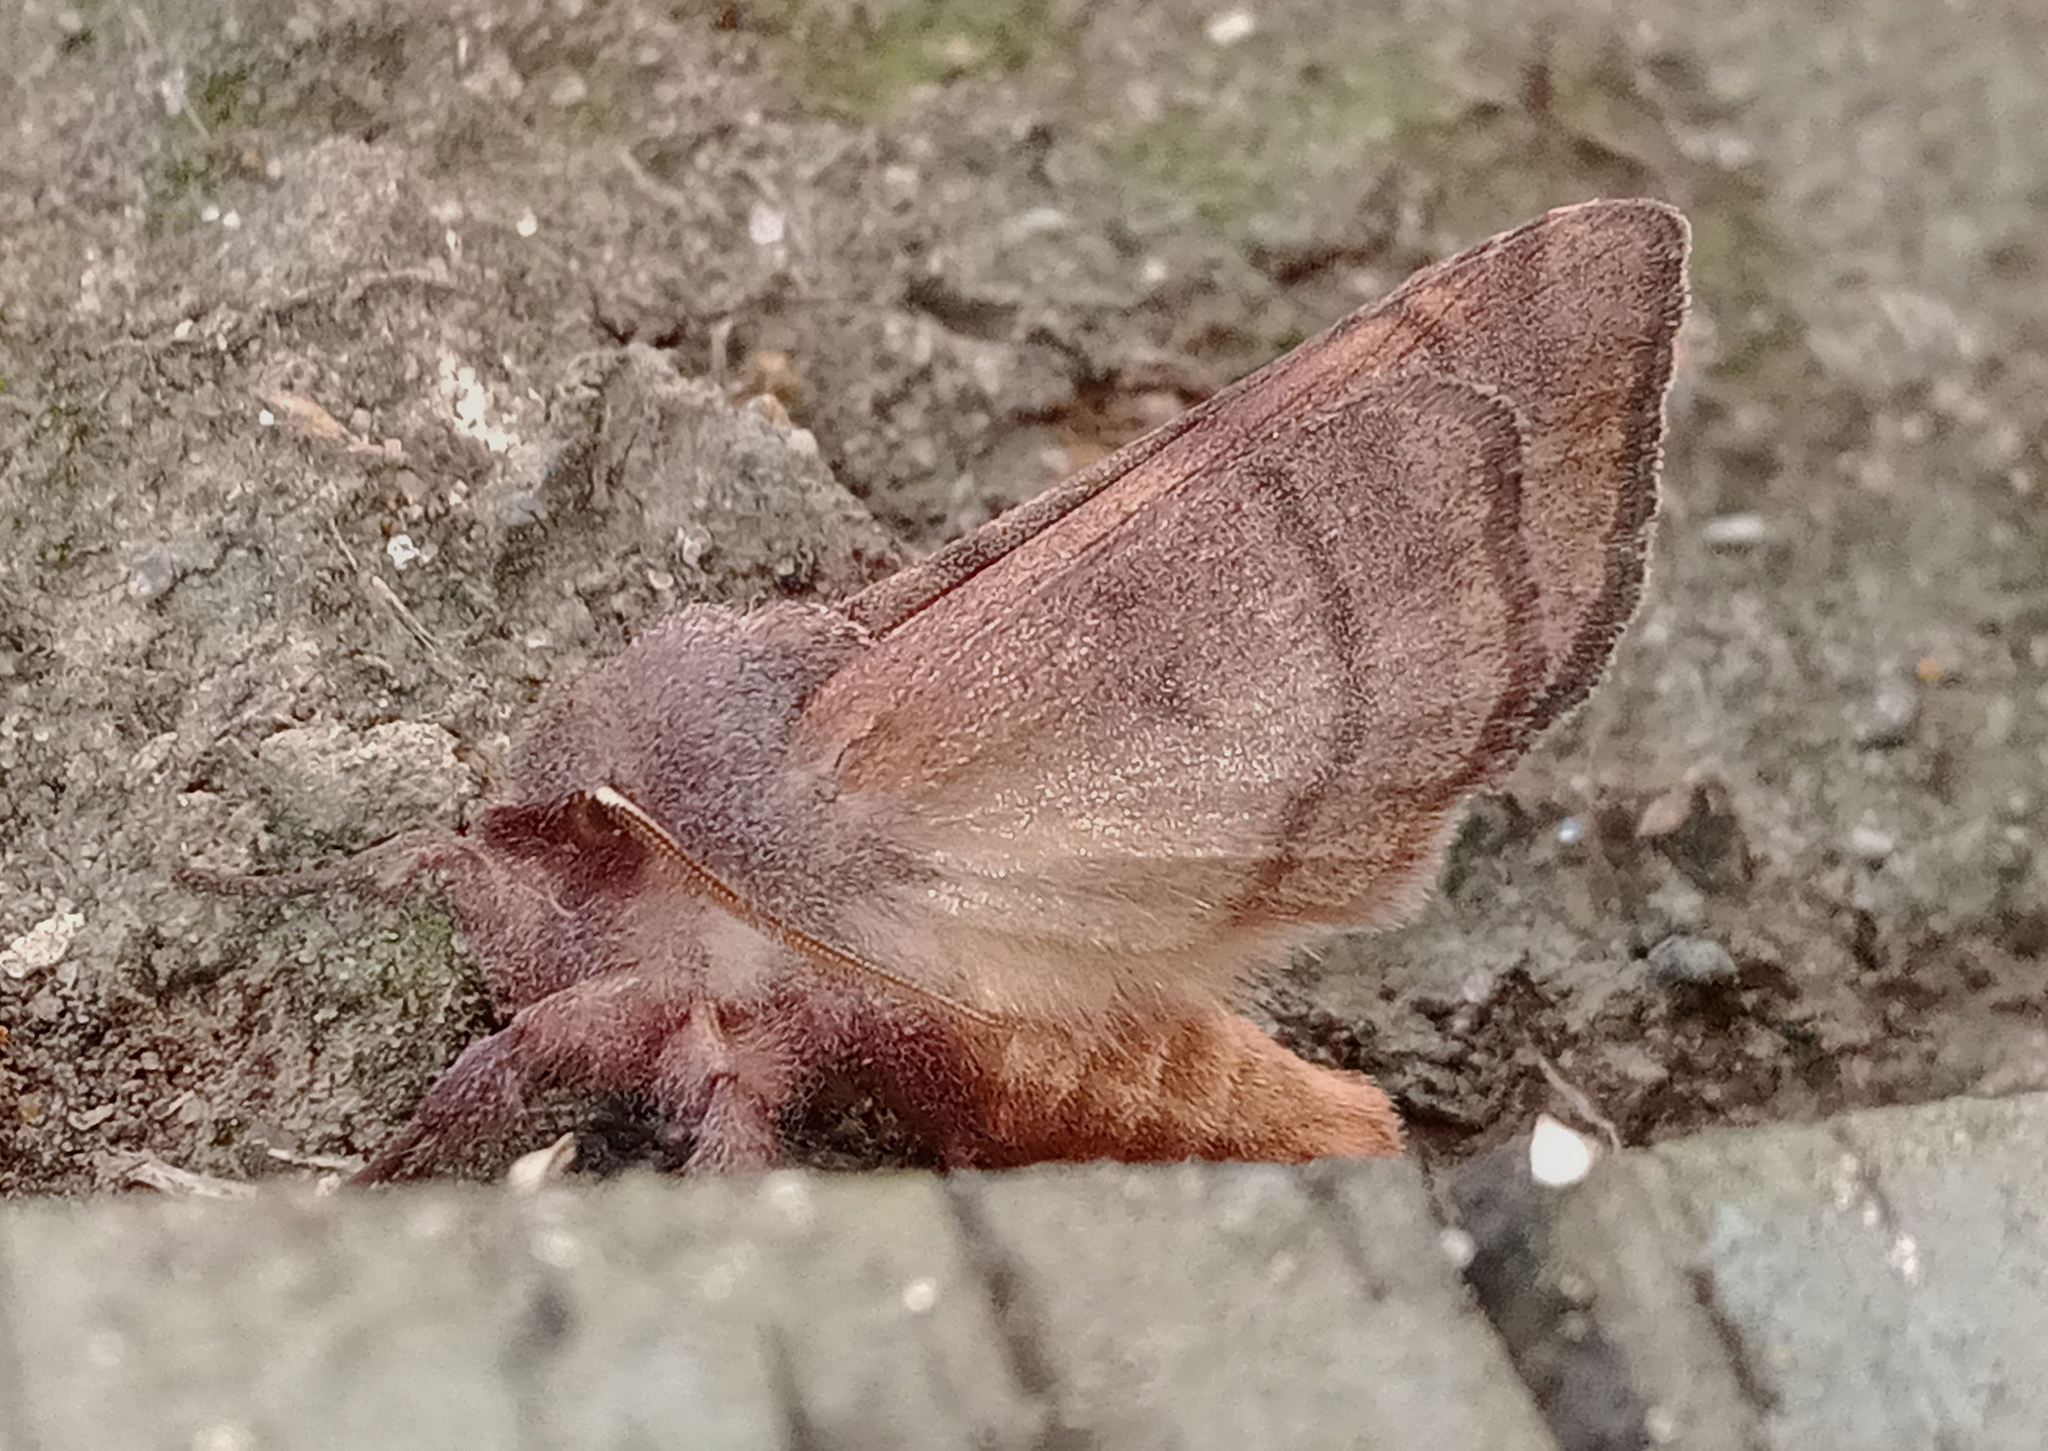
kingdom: Animalia
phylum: Arthropoda
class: Insecta
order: Lepidoptera
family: Lasiocampidae
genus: Malacosoma
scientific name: Malacosoma disstria
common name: Forest tent caterpillar
